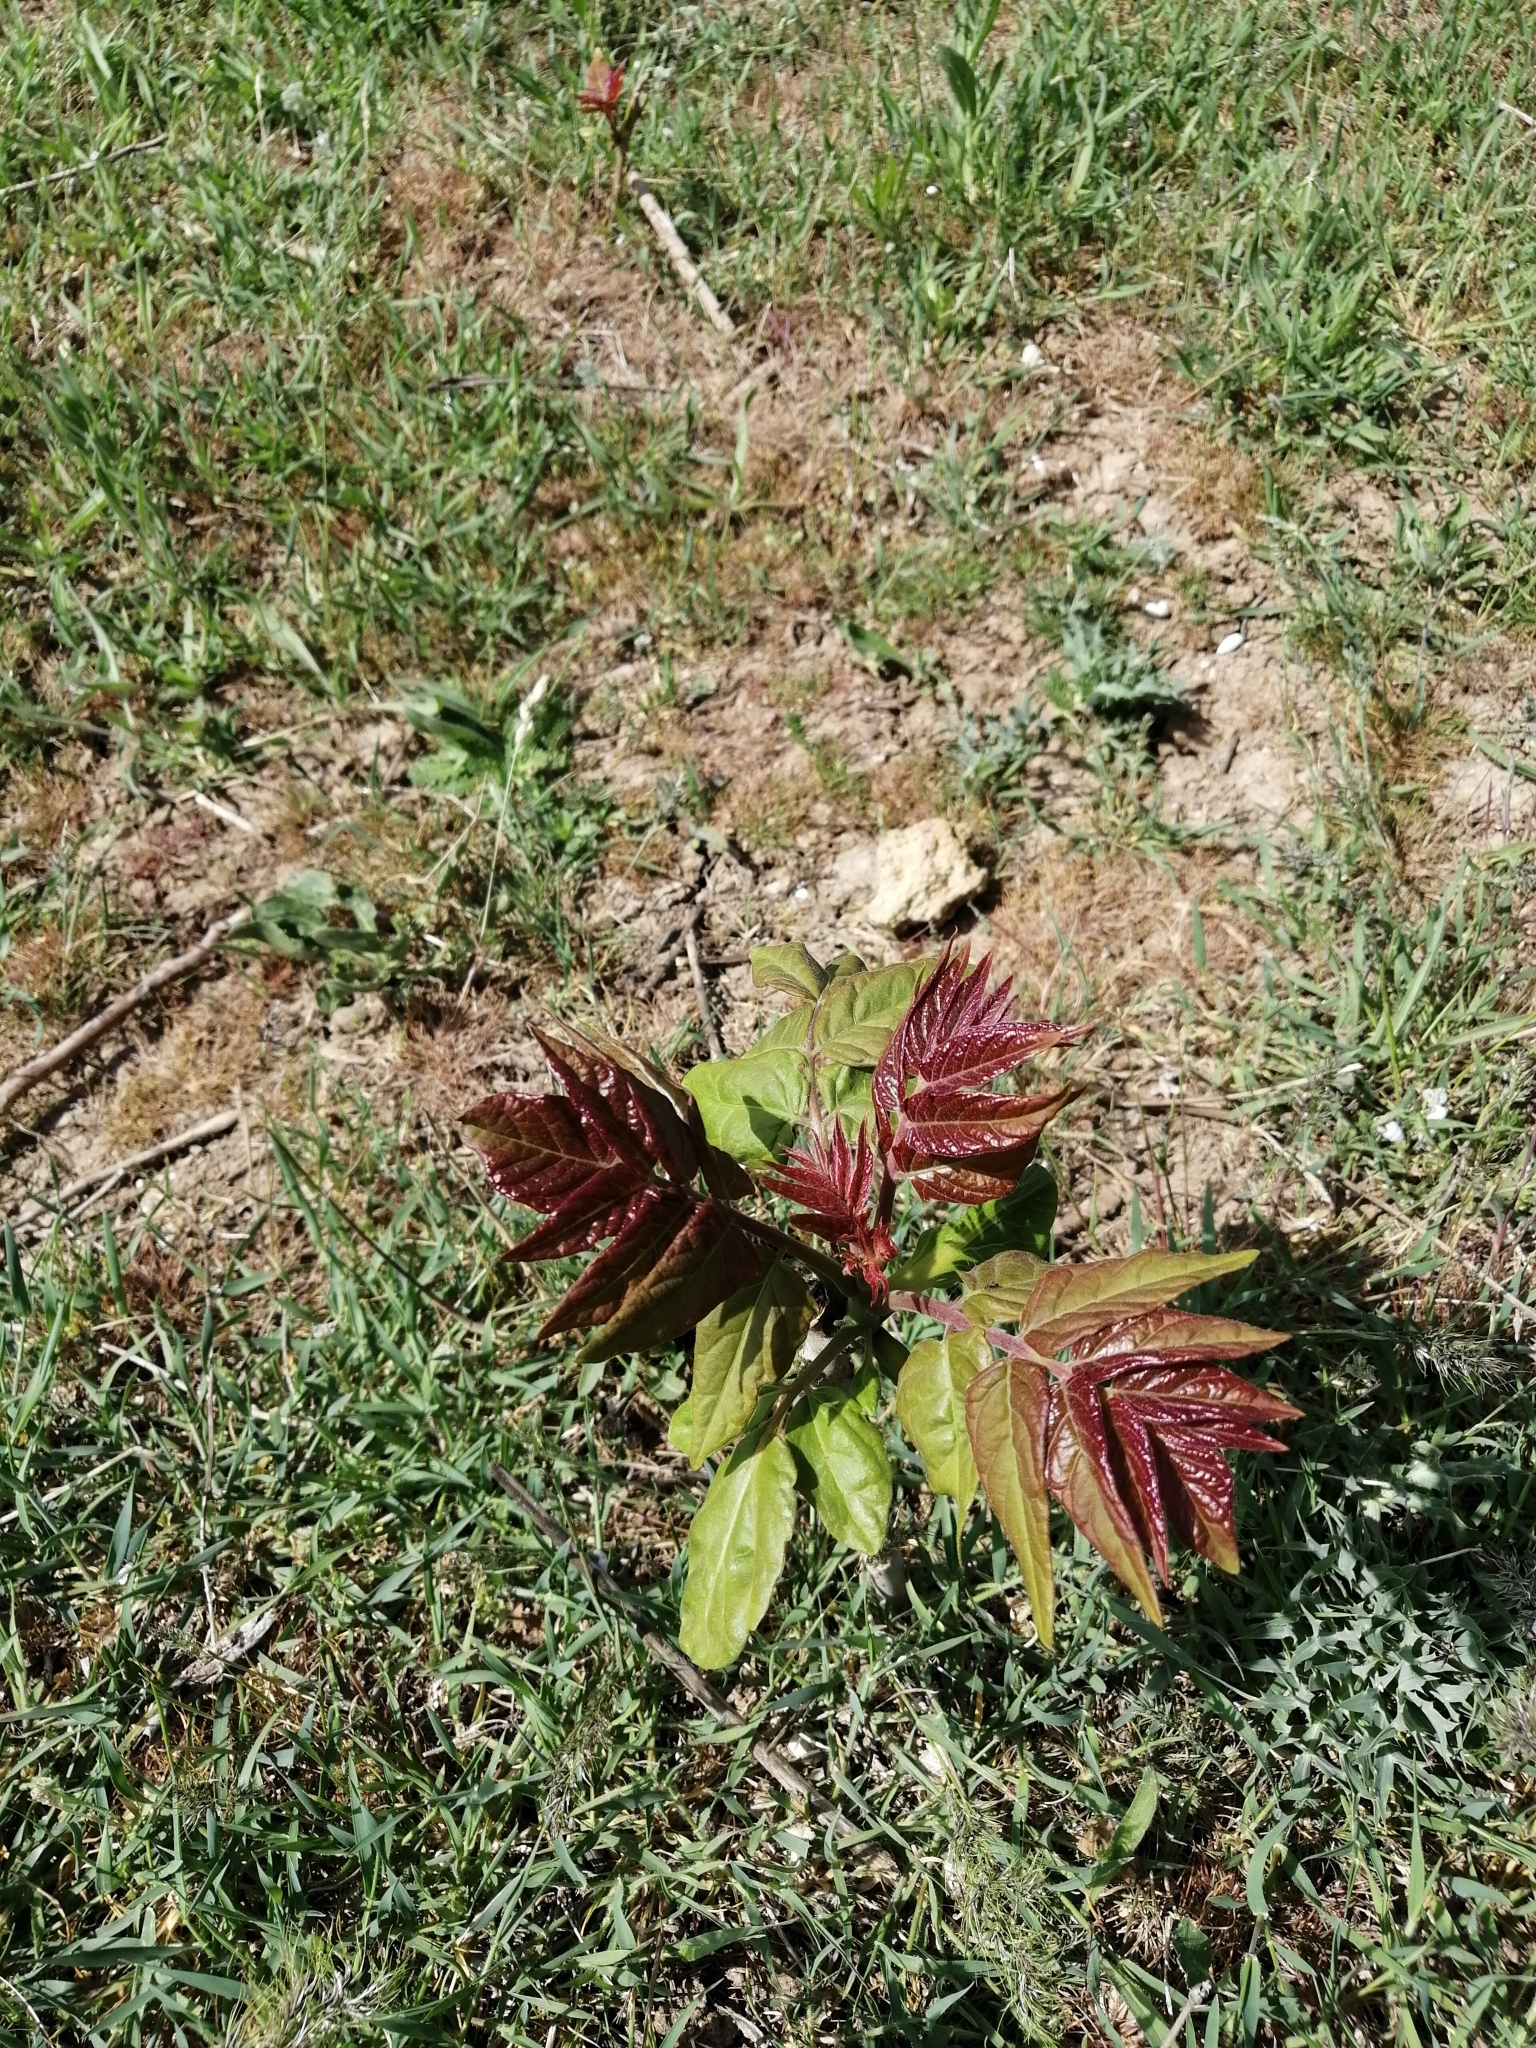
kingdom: Plantae
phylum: Tracheophyta
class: Magnoliopsida
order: Sapindales
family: Simaroubaceae
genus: Ailanthus
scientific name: Ailanthus altissima
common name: Tree-of-heaven
